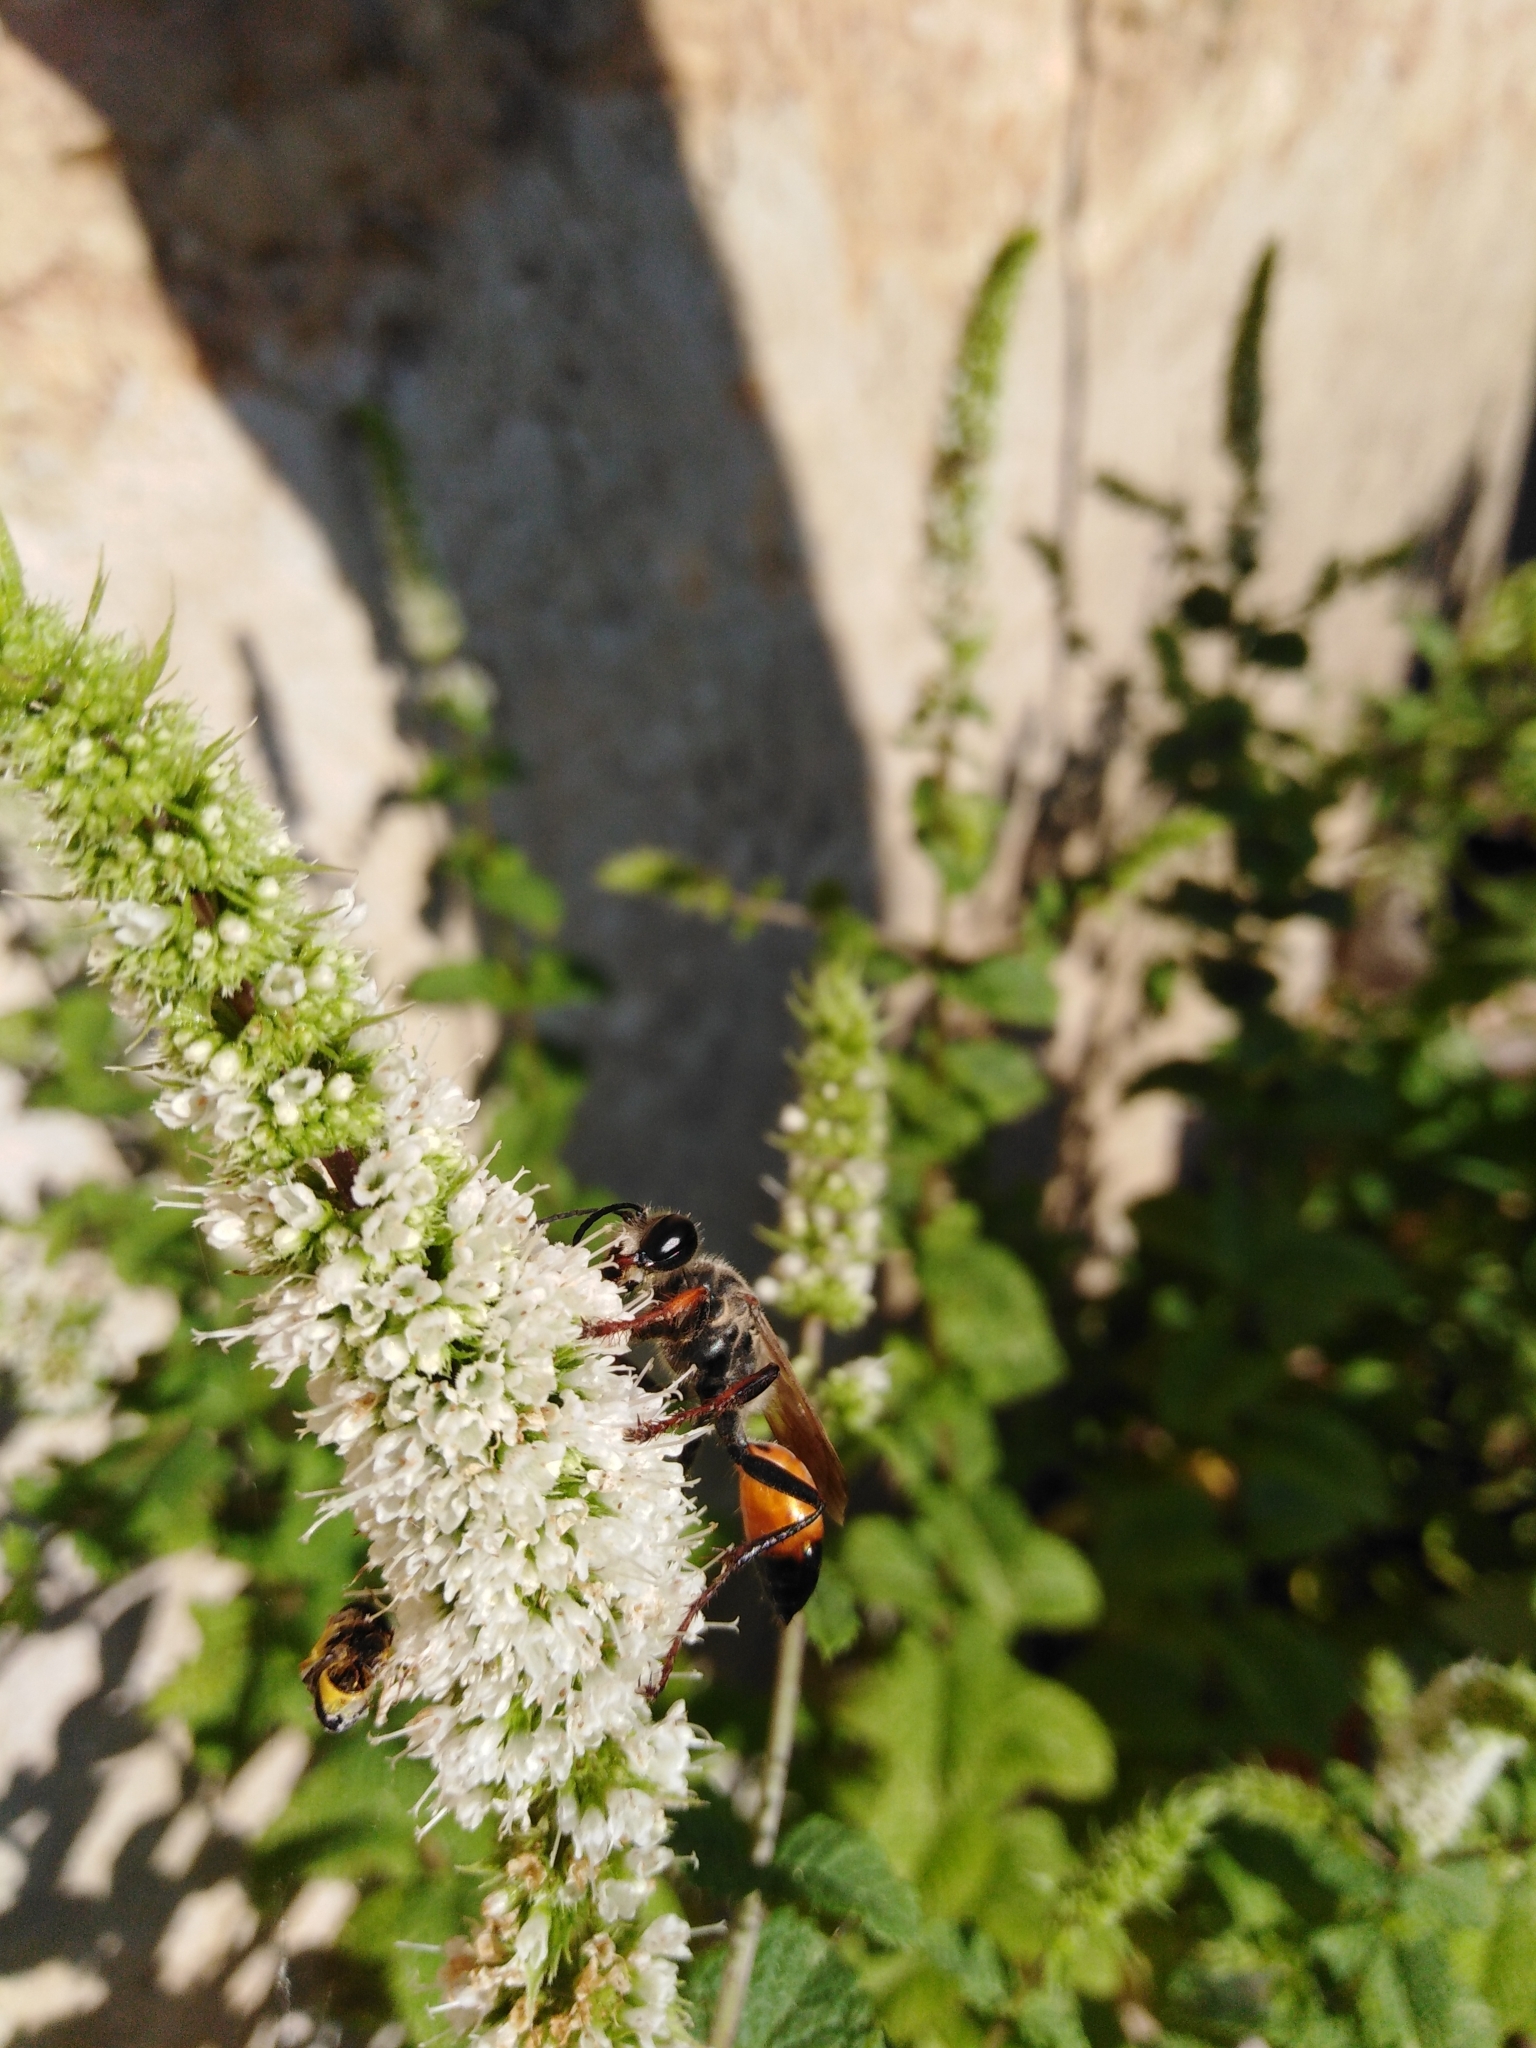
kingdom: Animalia
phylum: Arthropoda
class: Insecta
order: Hymenoptera
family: Sphecidae
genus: Sphex
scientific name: Sphex funerarius
